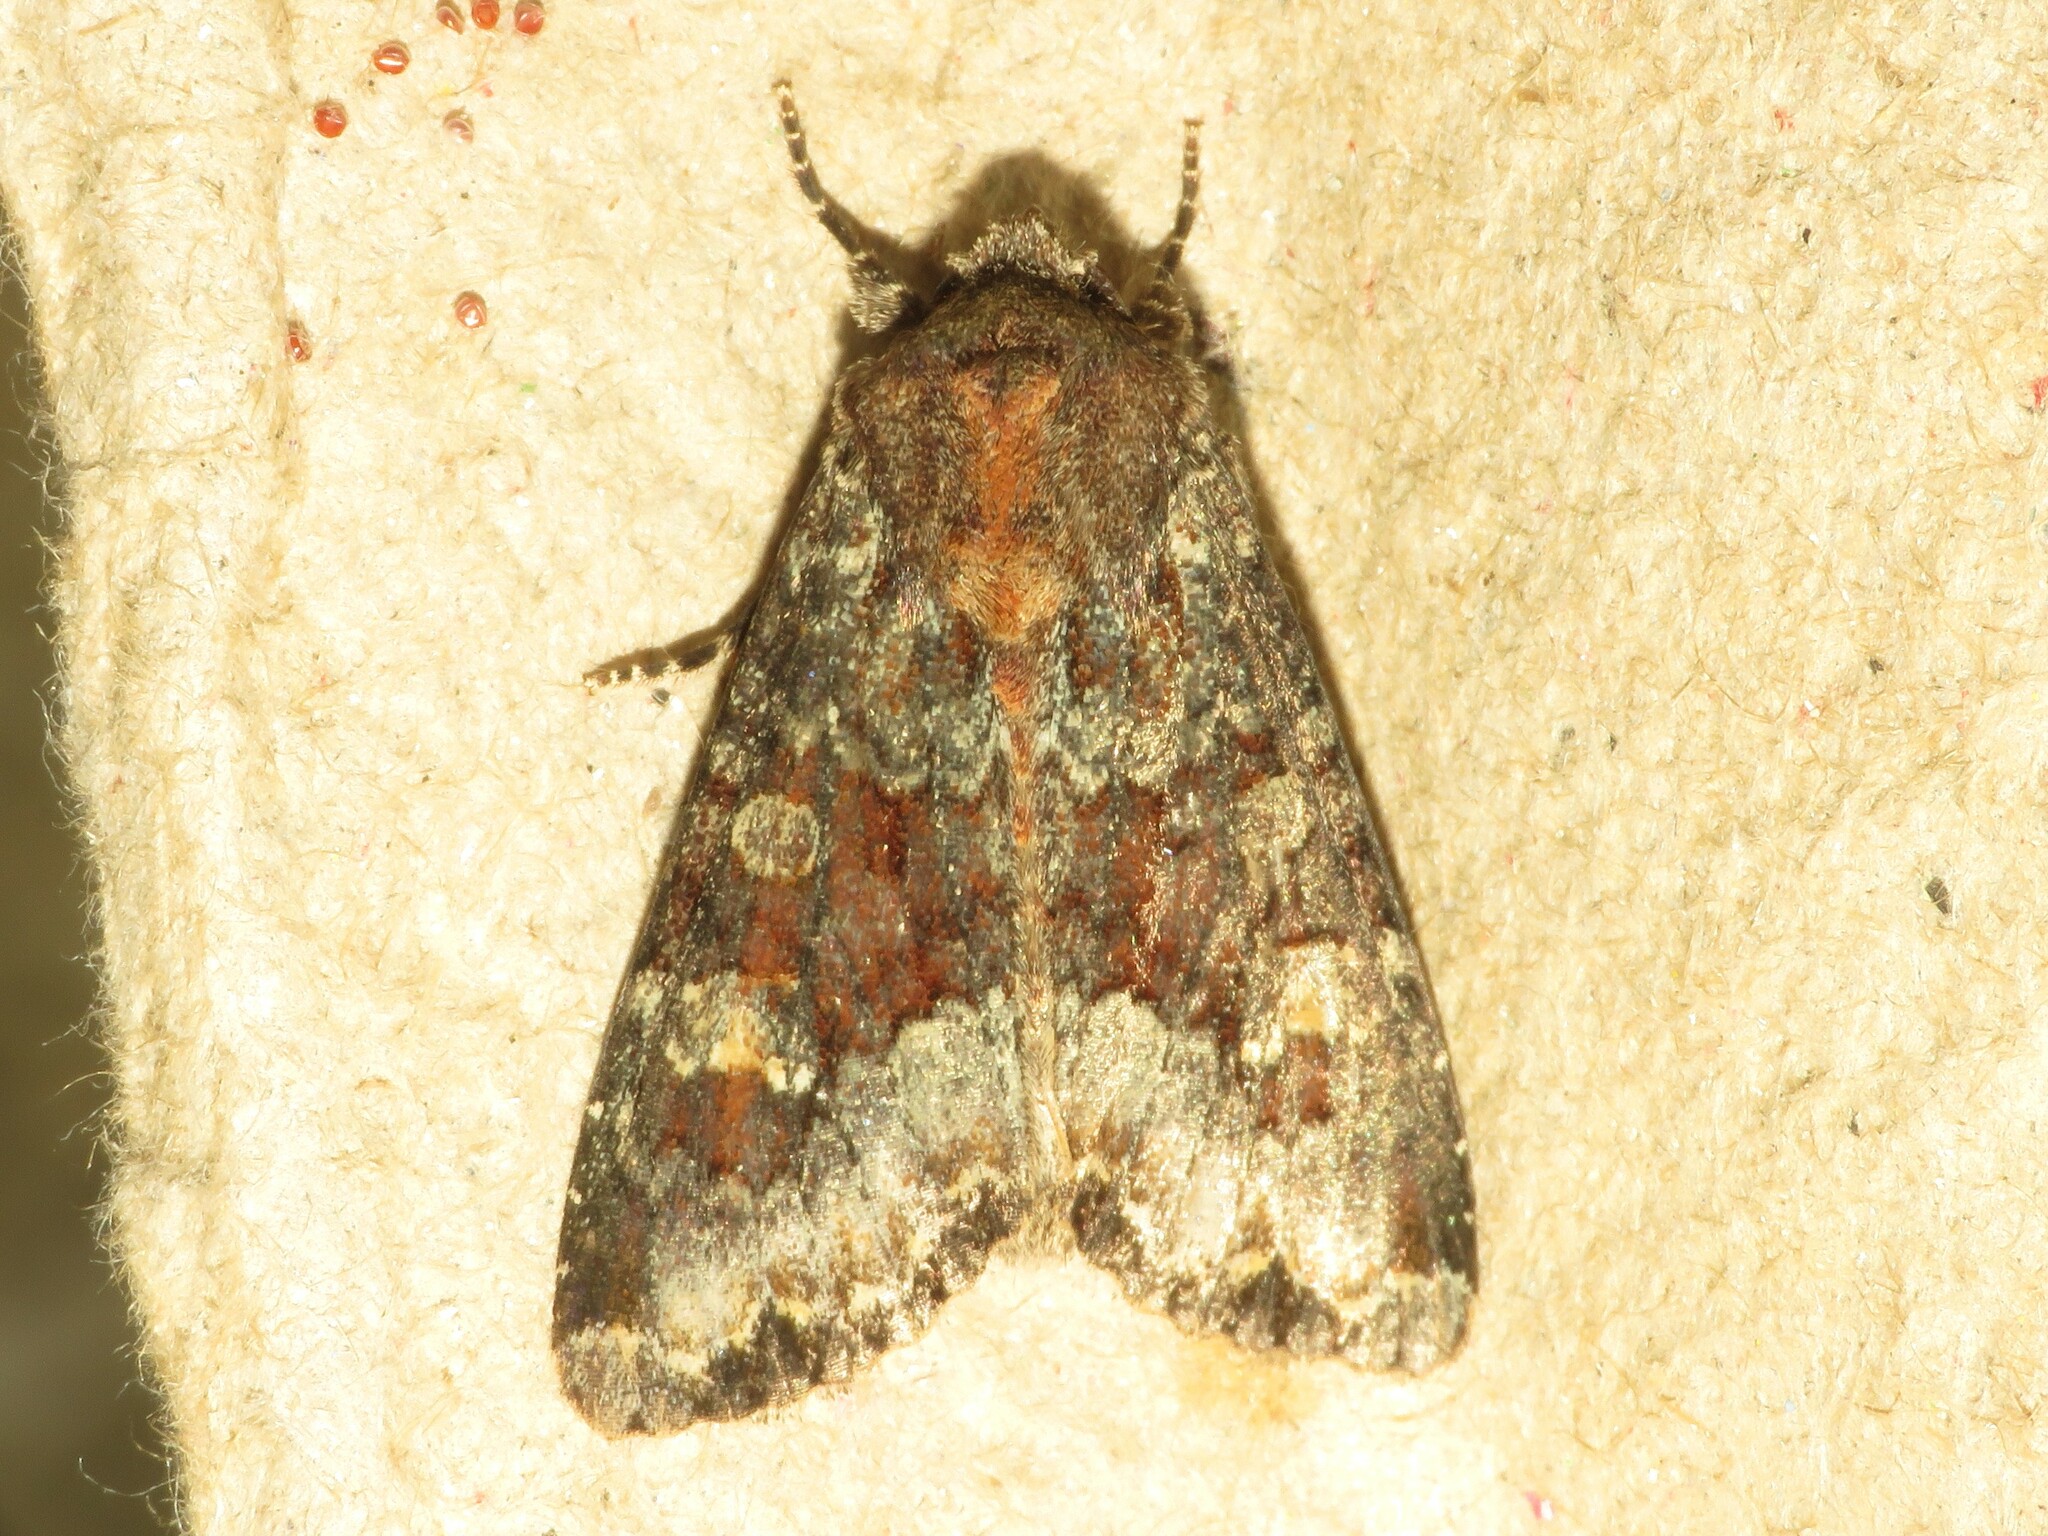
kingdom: Animalia
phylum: Arthropoda
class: Insecta
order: Lepidoptera
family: Noctuidae
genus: Apamea
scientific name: Apamea amputatrix
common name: Yellow-headed cutworm moth
